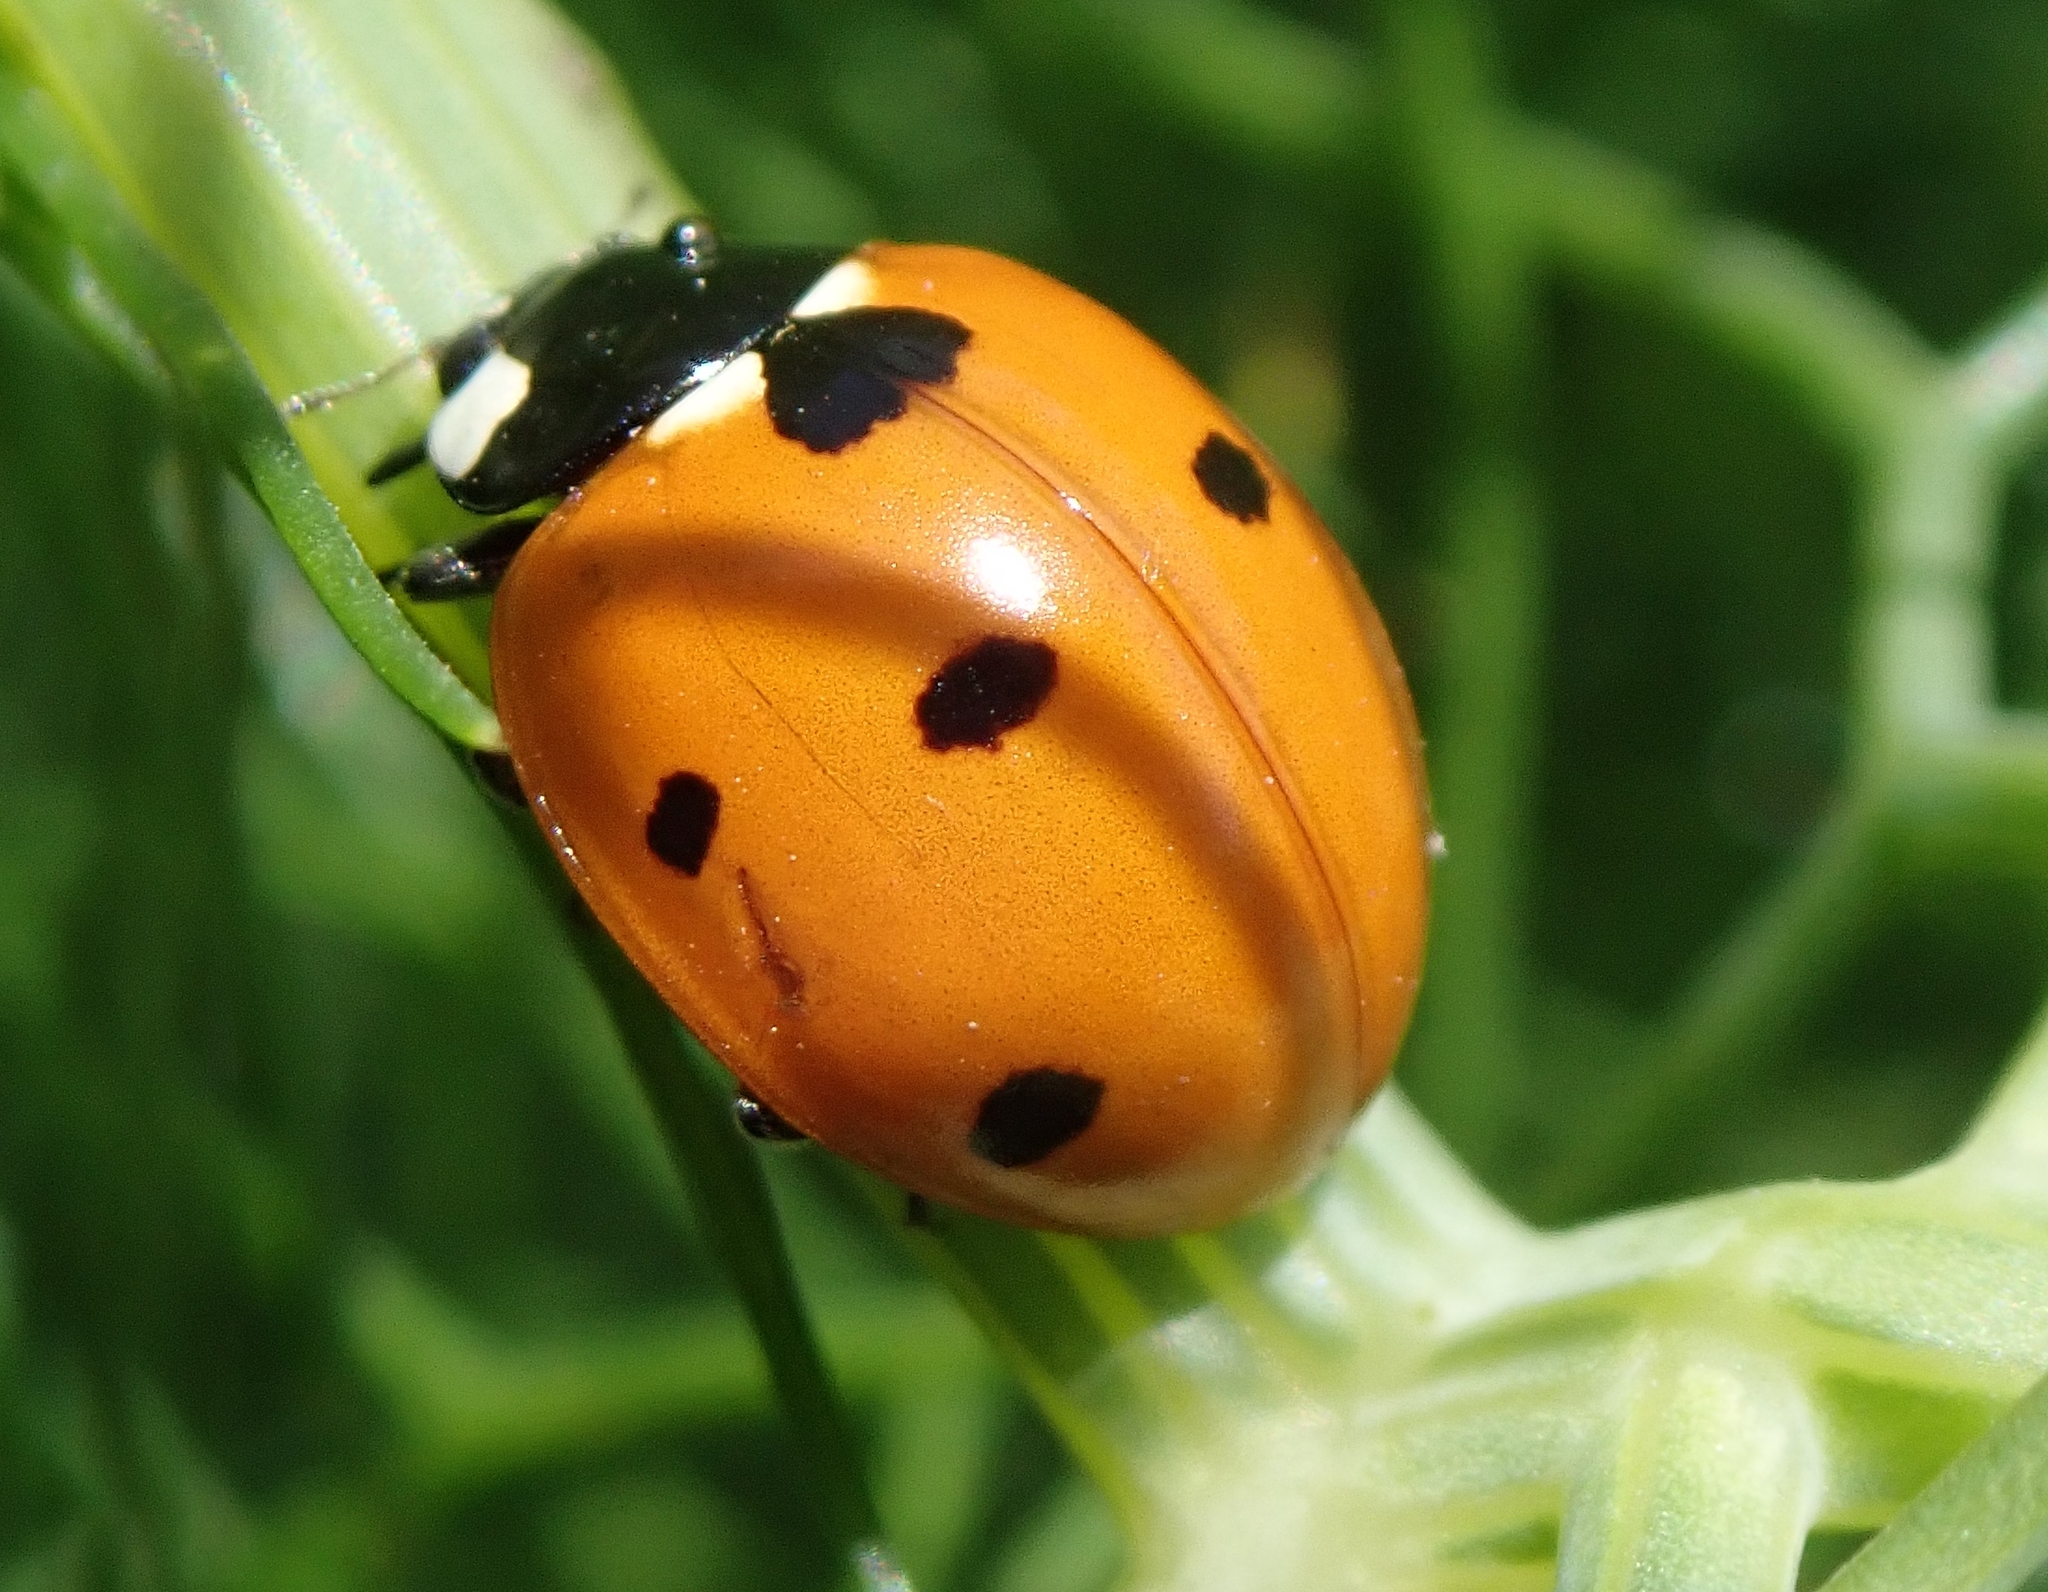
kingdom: Animalia
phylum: Arthropoda
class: Insecta
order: Coleoptera
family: Coccinellidae
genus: Coccinella
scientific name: Coccinella septempunctata
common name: Sevenspotted lady beetle
